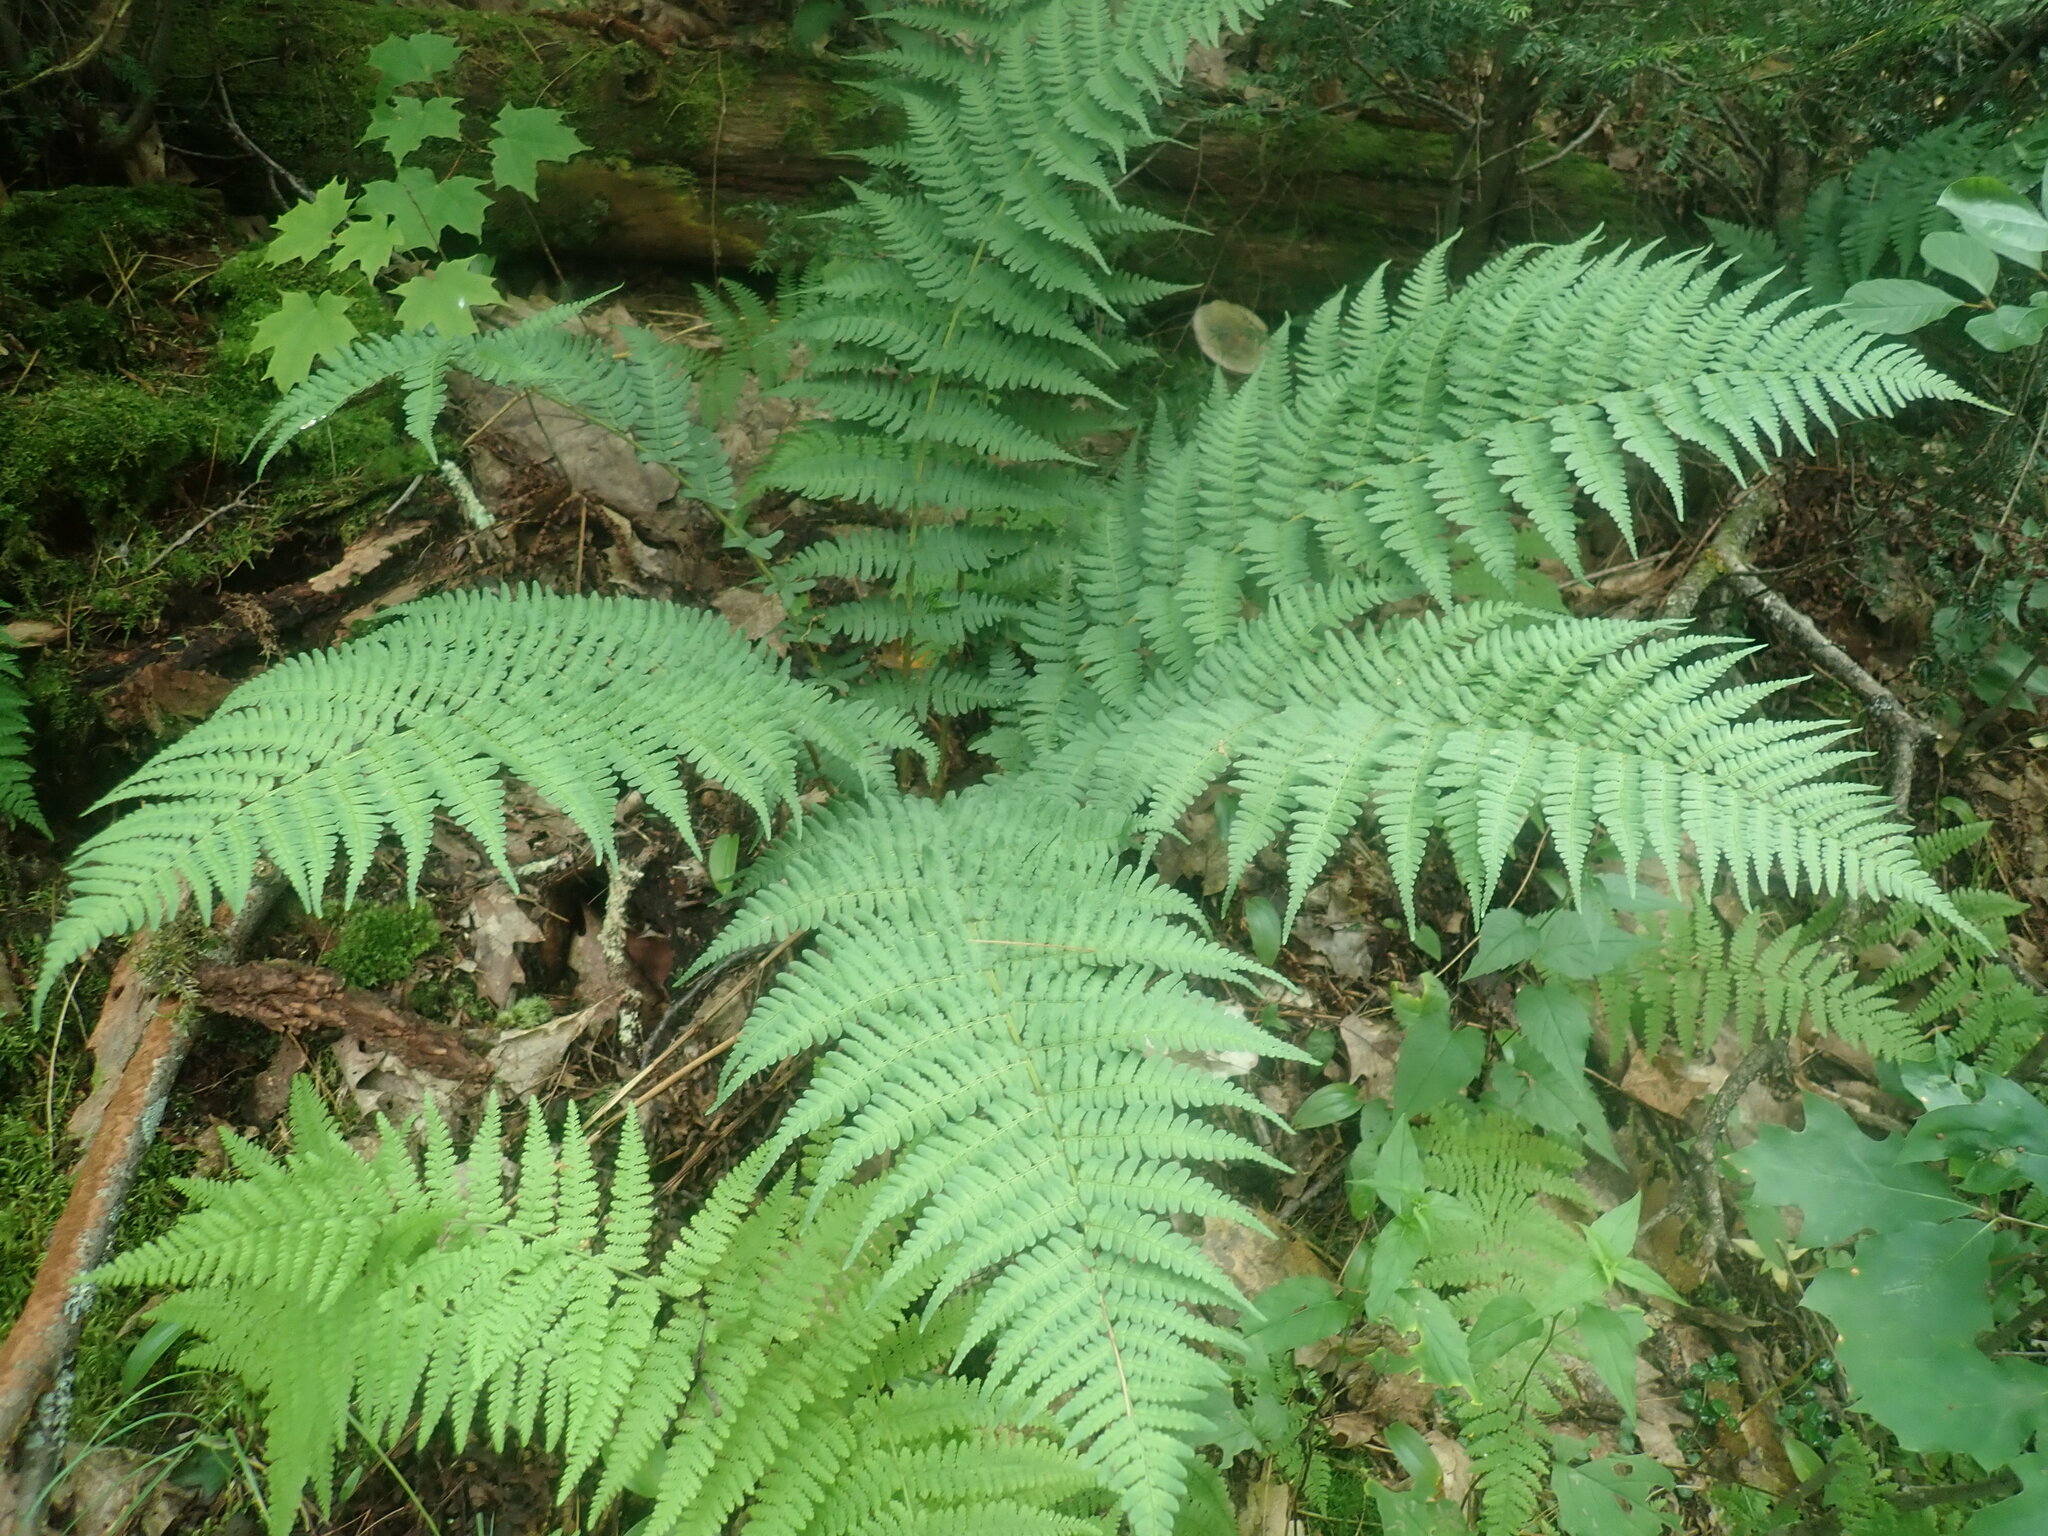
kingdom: Plantae
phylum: Tracheophyta
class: Polypodiopsida
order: Polypodiales
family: Dryopteridaceae
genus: Dryopteris
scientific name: Dryopteris marginalis
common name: Marginal wood fern
